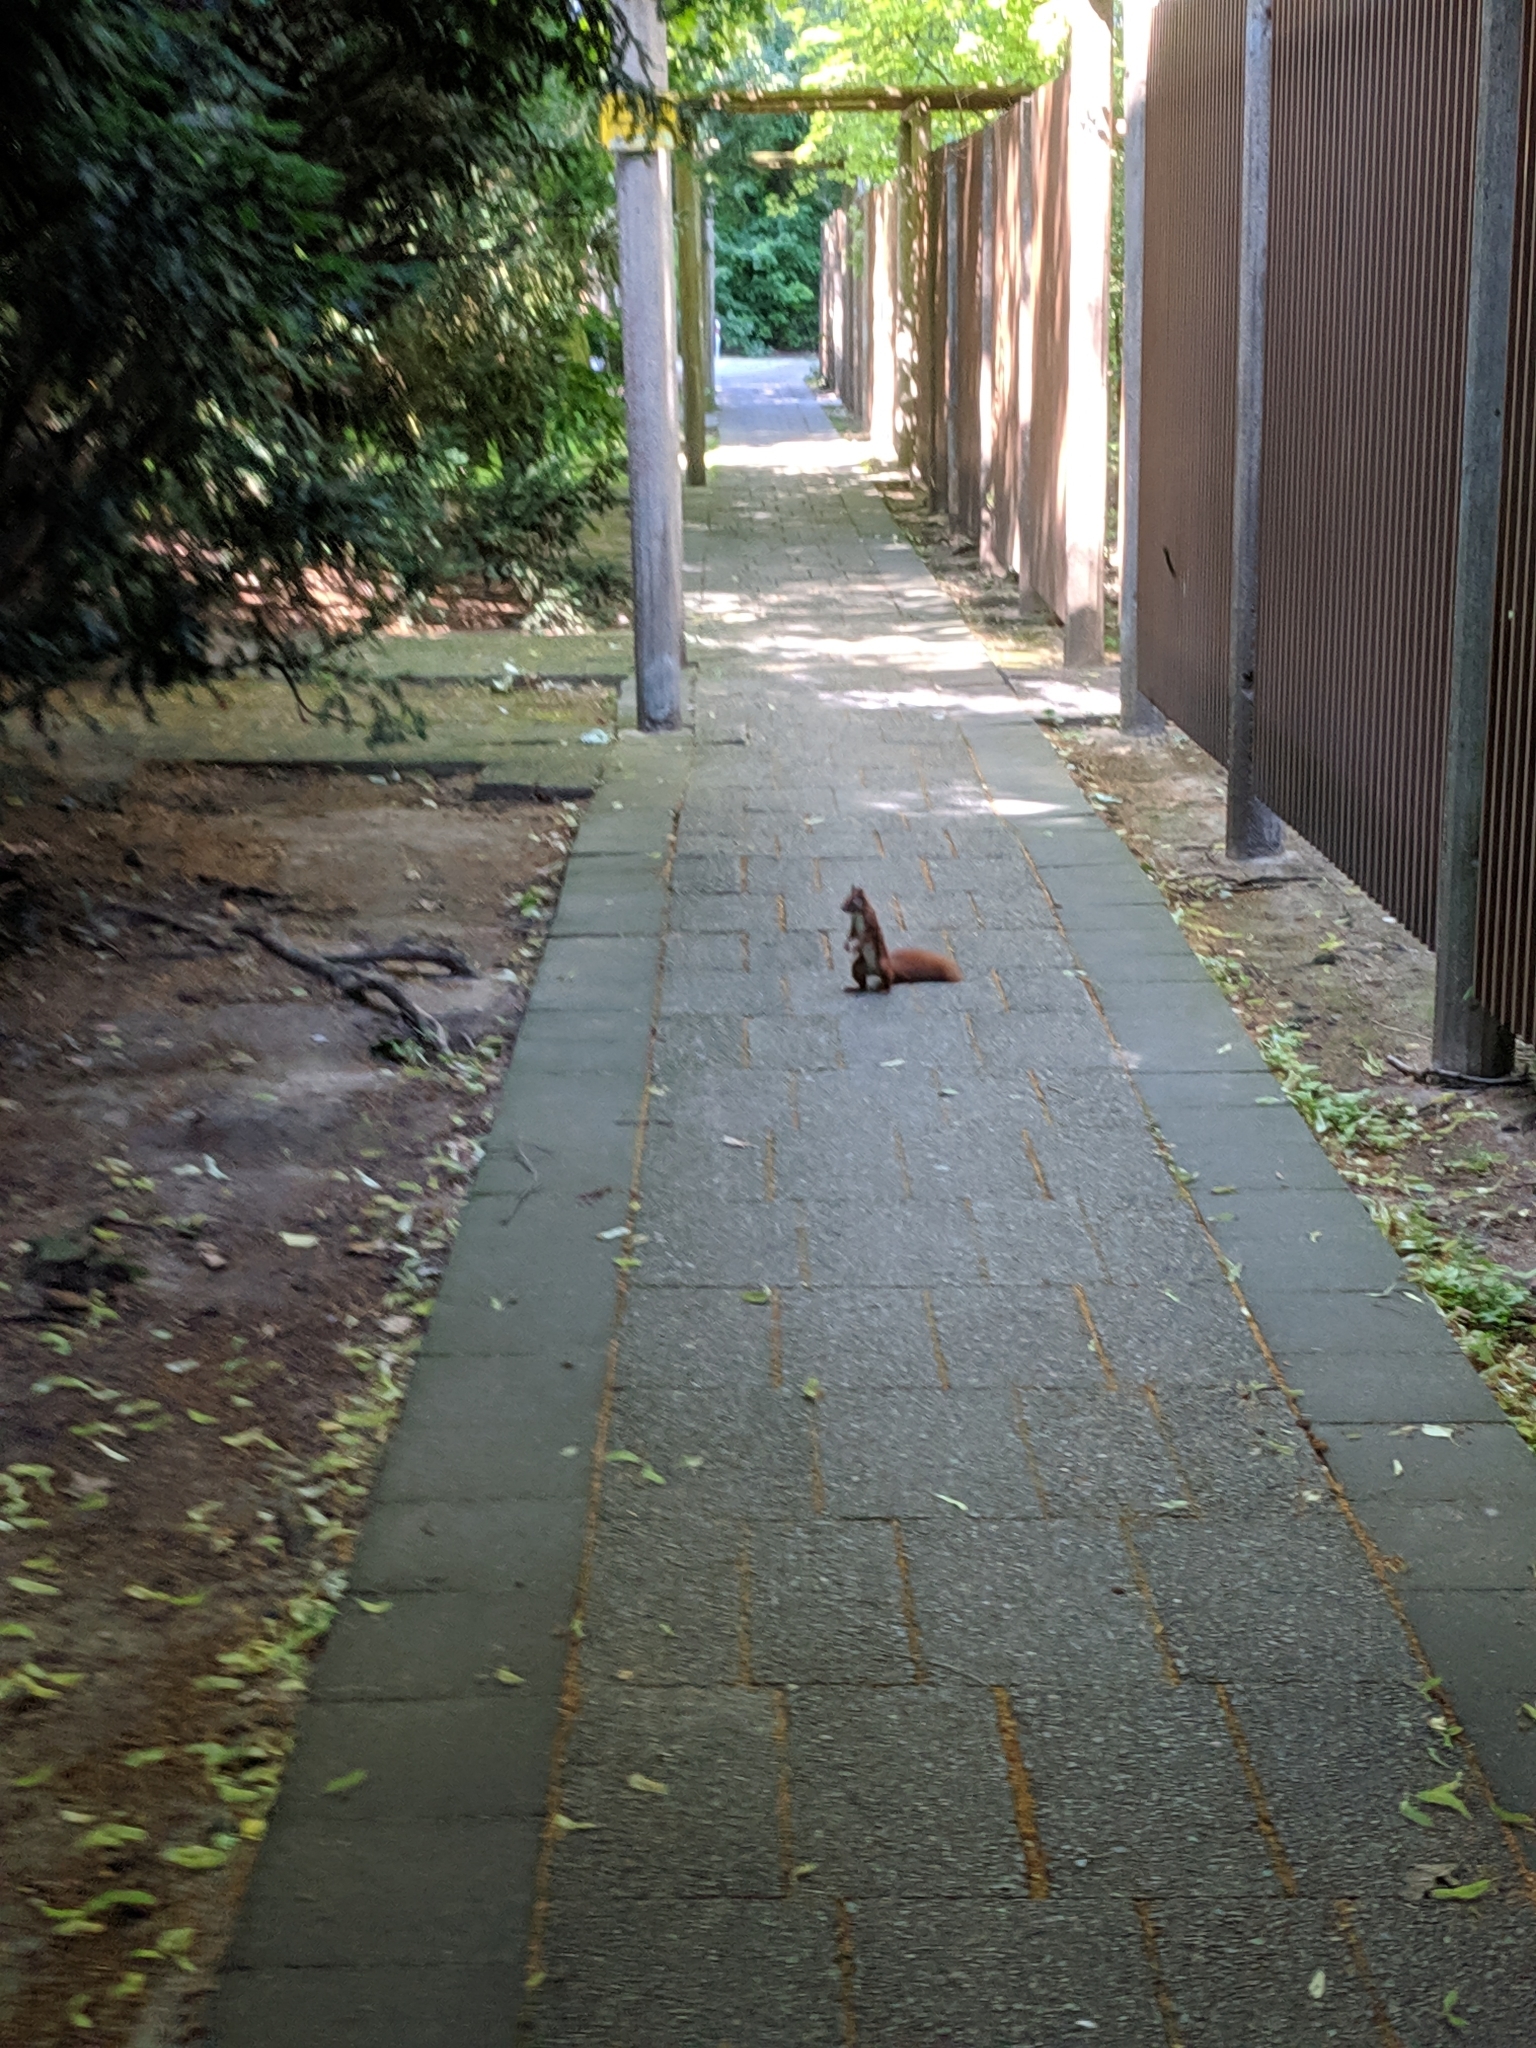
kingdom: Animalia
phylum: Chordata
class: Mammalia
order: Rodentia
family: Sciuridae
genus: Sciurus
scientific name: Sciurus vulgaris
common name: Eurasian red squirrel
